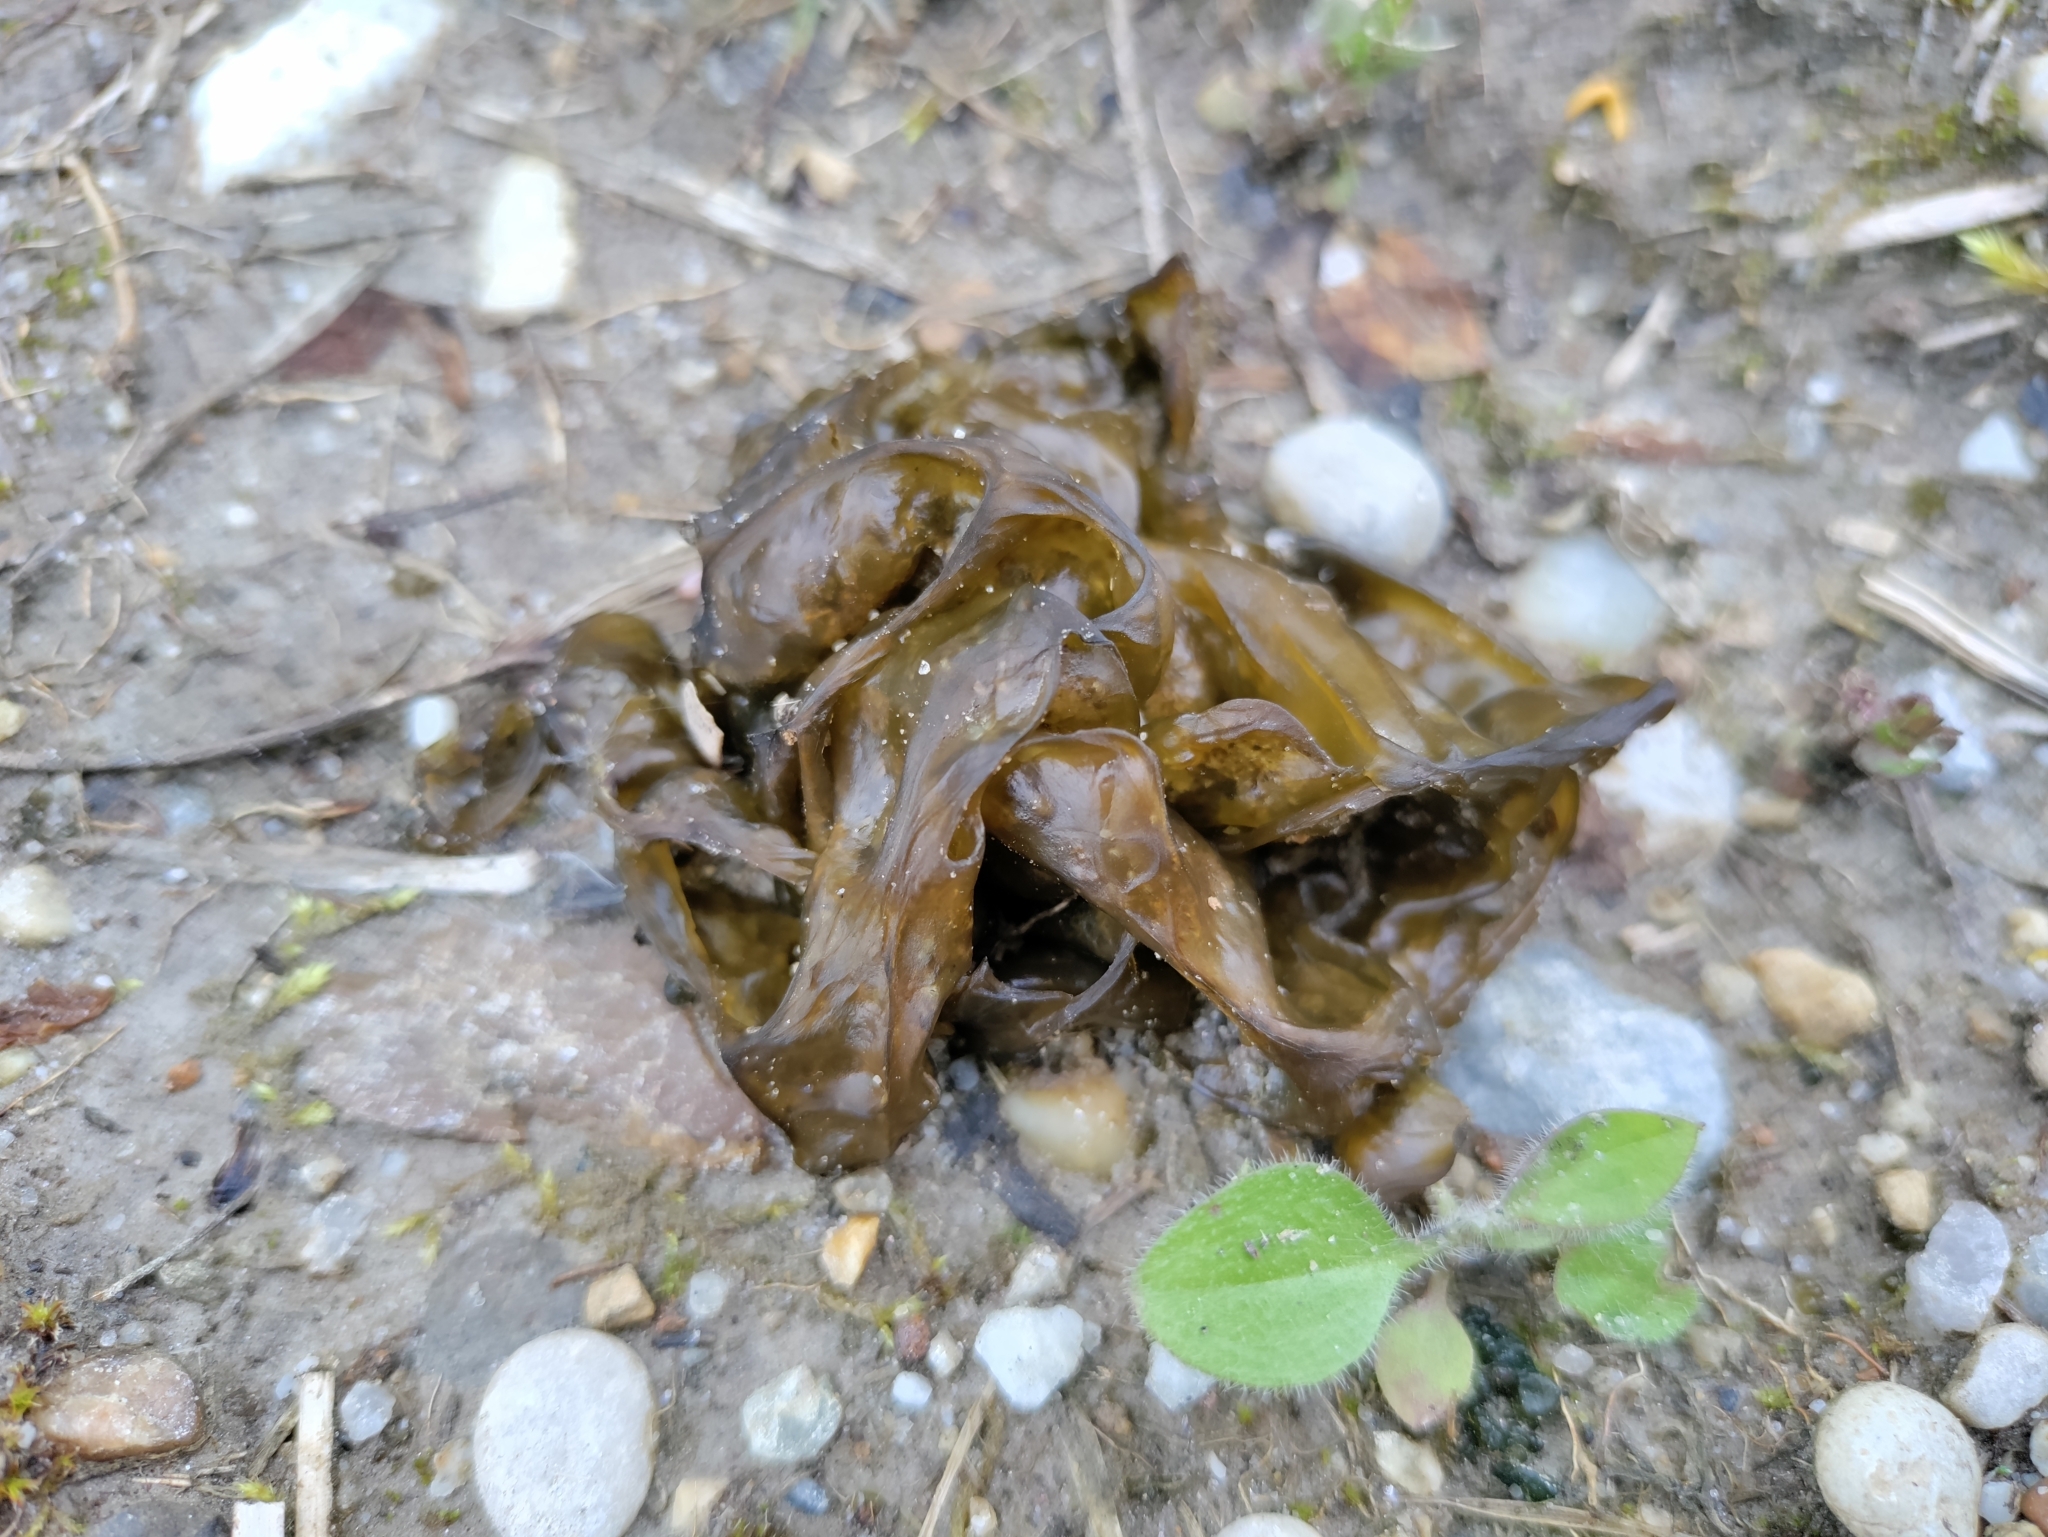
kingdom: Bacteria
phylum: Cyanobacteria
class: Cyanobacteriia
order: Cyanobacteriales
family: Nostocaceae
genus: Nostoc
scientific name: Nostoc commune
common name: Star jelly
